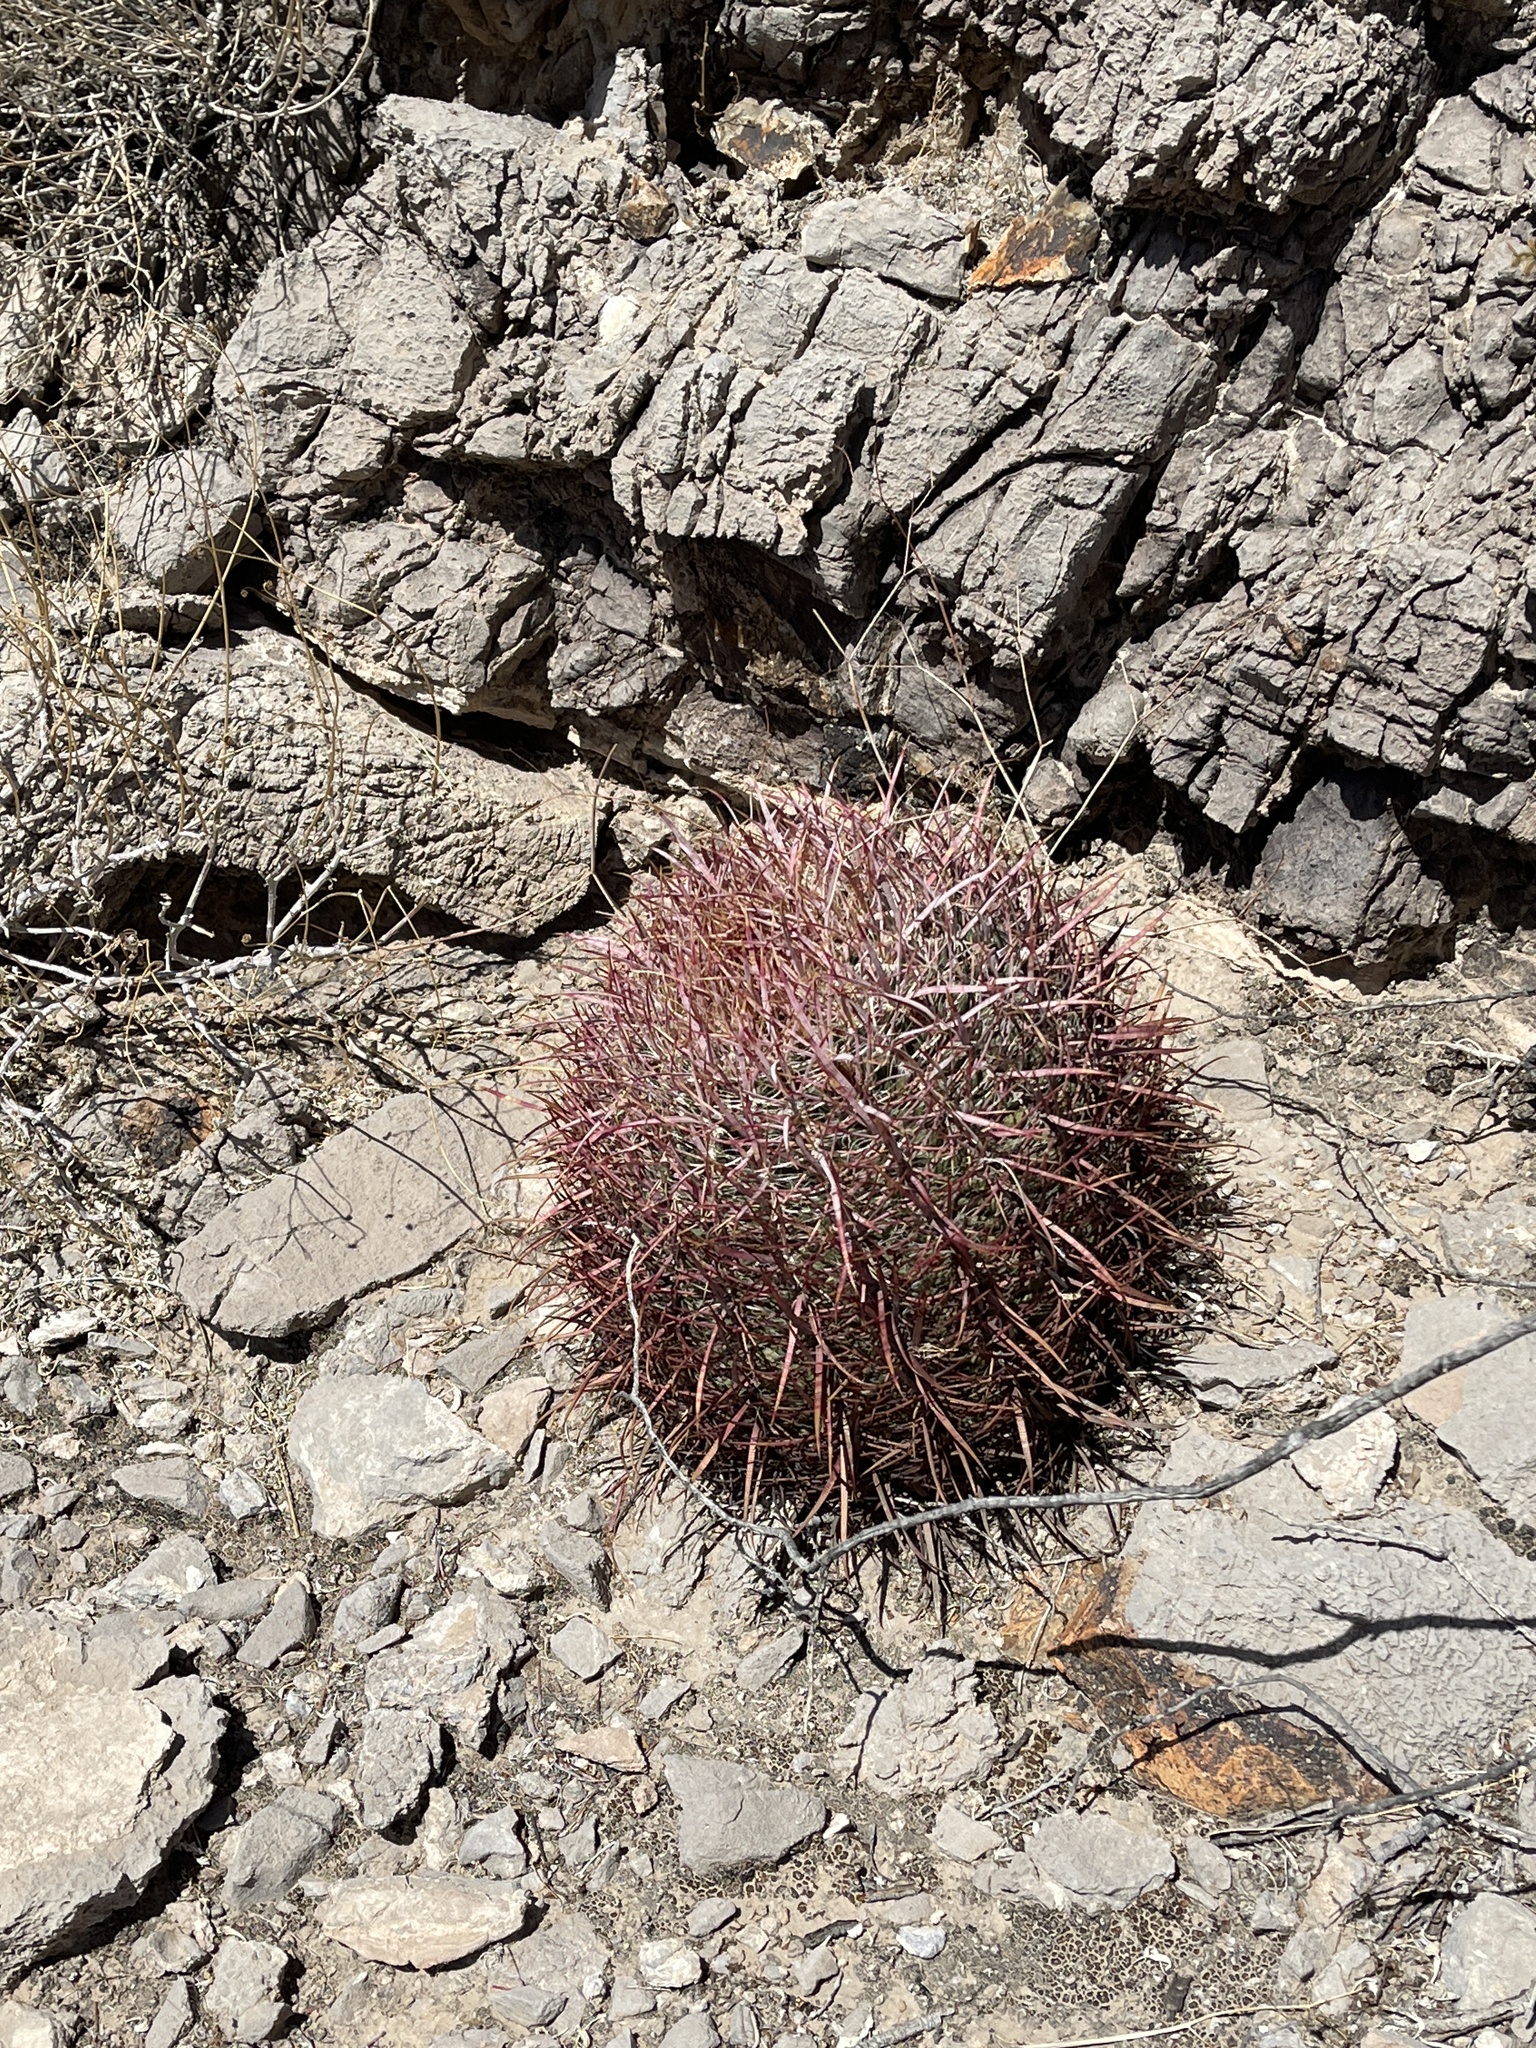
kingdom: Plantae
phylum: Tracheophyta
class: Magnoliopsida
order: Caryophyllales
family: Cactaceae
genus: Ferocactus
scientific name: Ferocactus cylindraceus
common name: California barrel cactus
